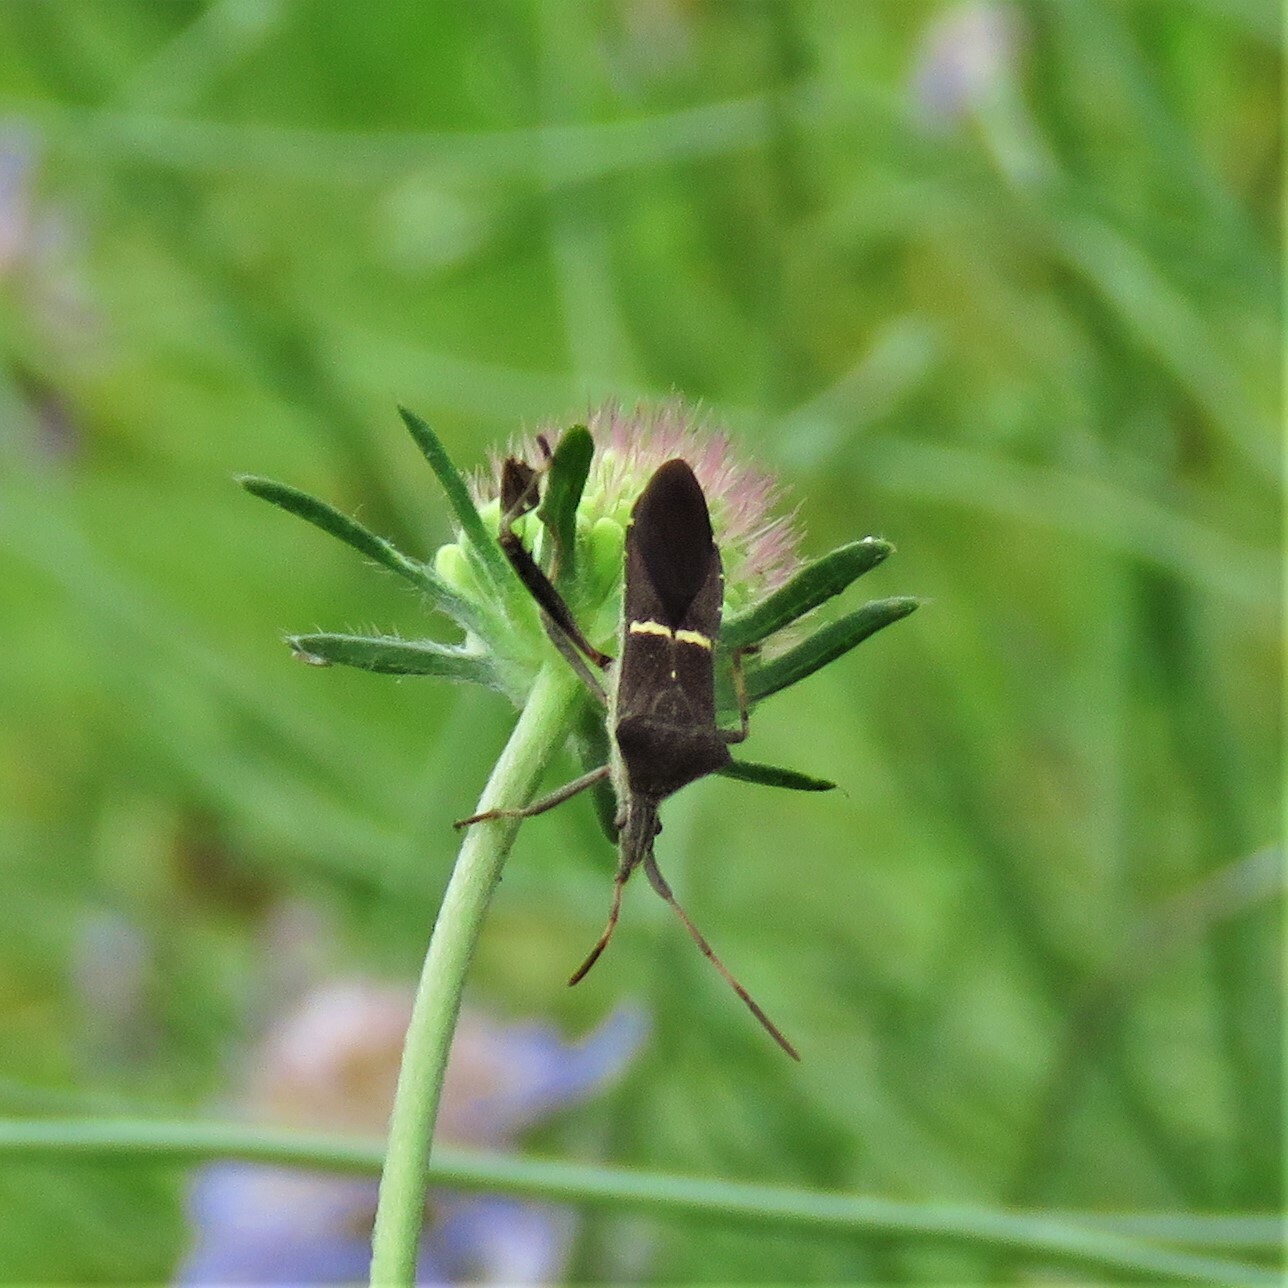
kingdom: Animalia
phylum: Arthropoda
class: Insecta
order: Hemiptera
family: Coreidae
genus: Leptoglossus
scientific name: Leptoglossus phyllopus
